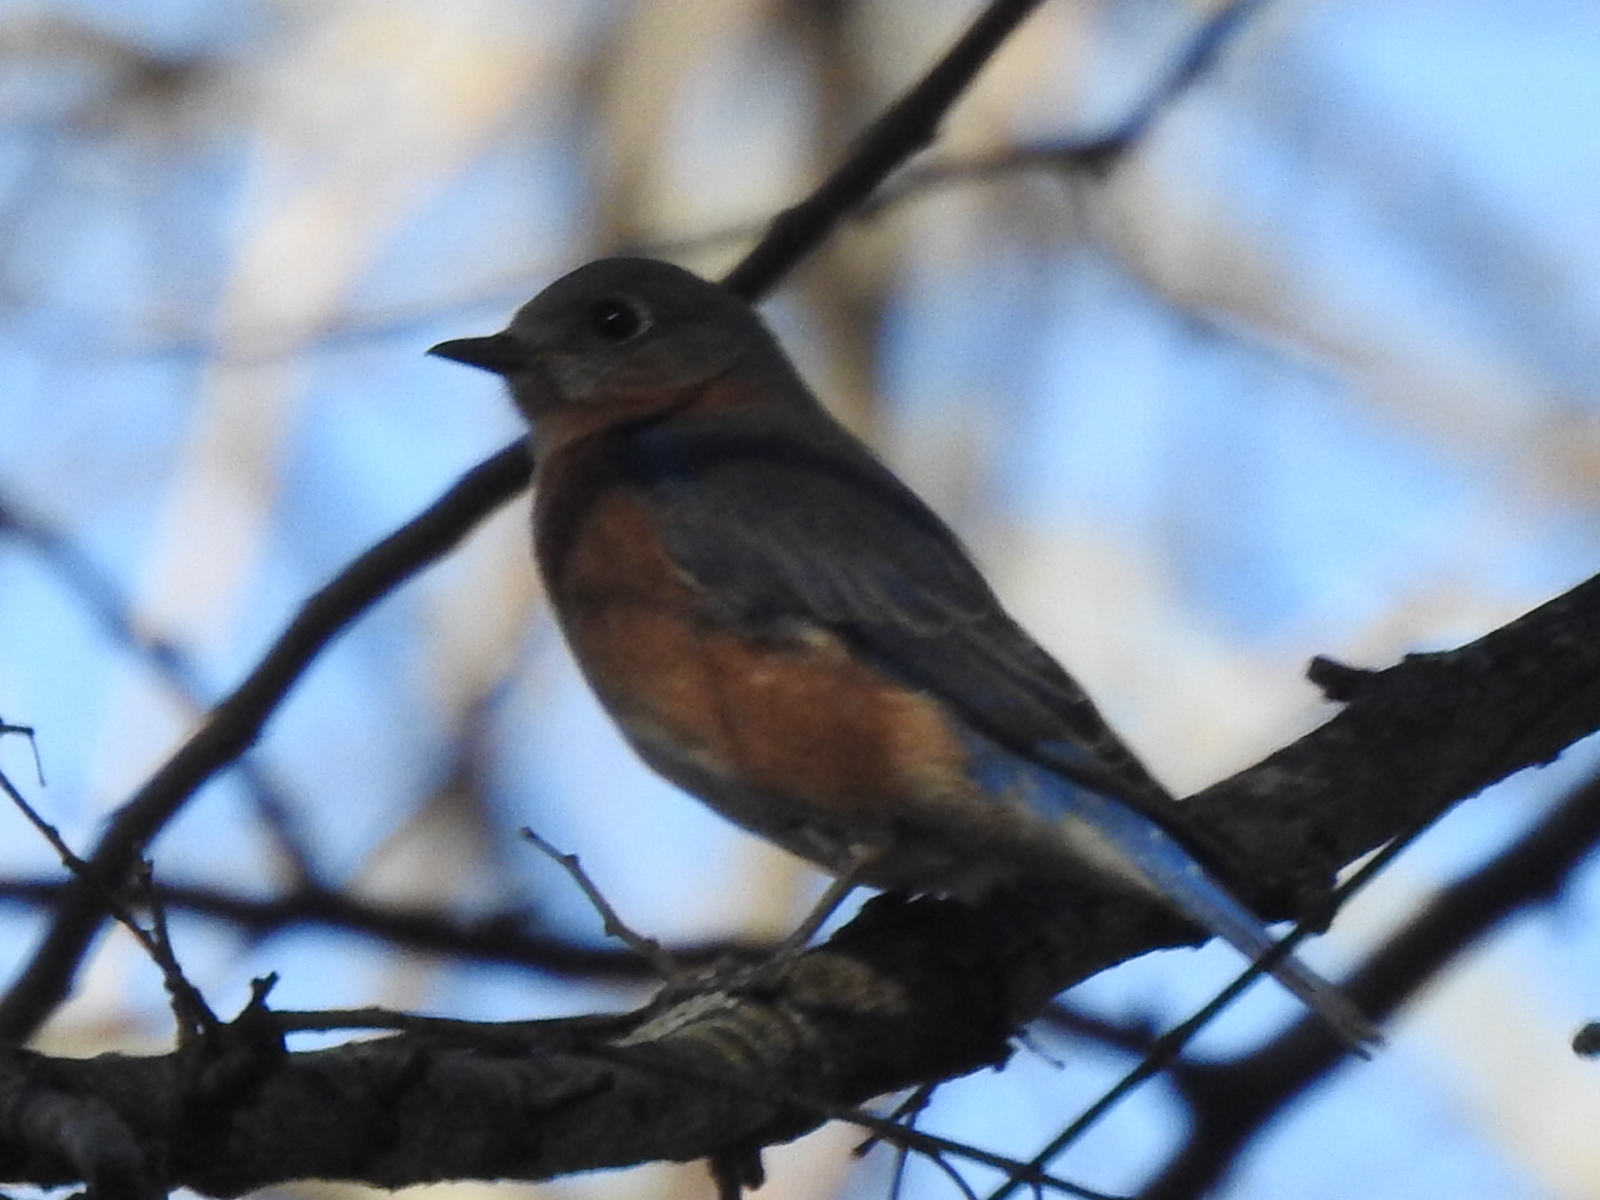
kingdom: Animalia
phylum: Chordata
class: Aves
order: Passeriformes
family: Turdidae
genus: Sialia
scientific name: Sialia sialis
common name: Eastern bluebird
